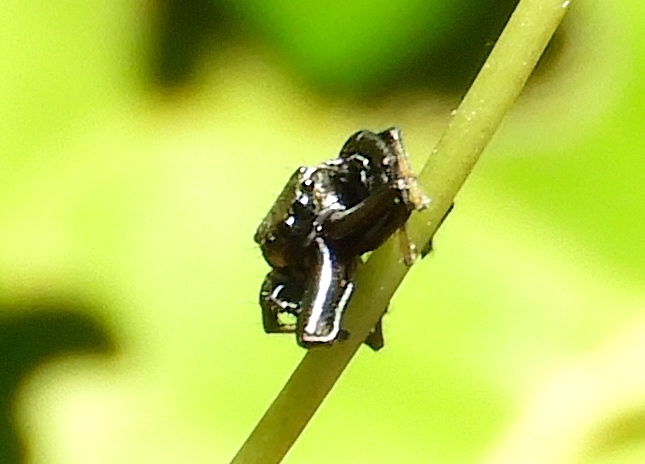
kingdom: Animalia
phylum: Arthropoda
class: Arachnida
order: Araneae
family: Salticidae
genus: Messua
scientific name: Messua
